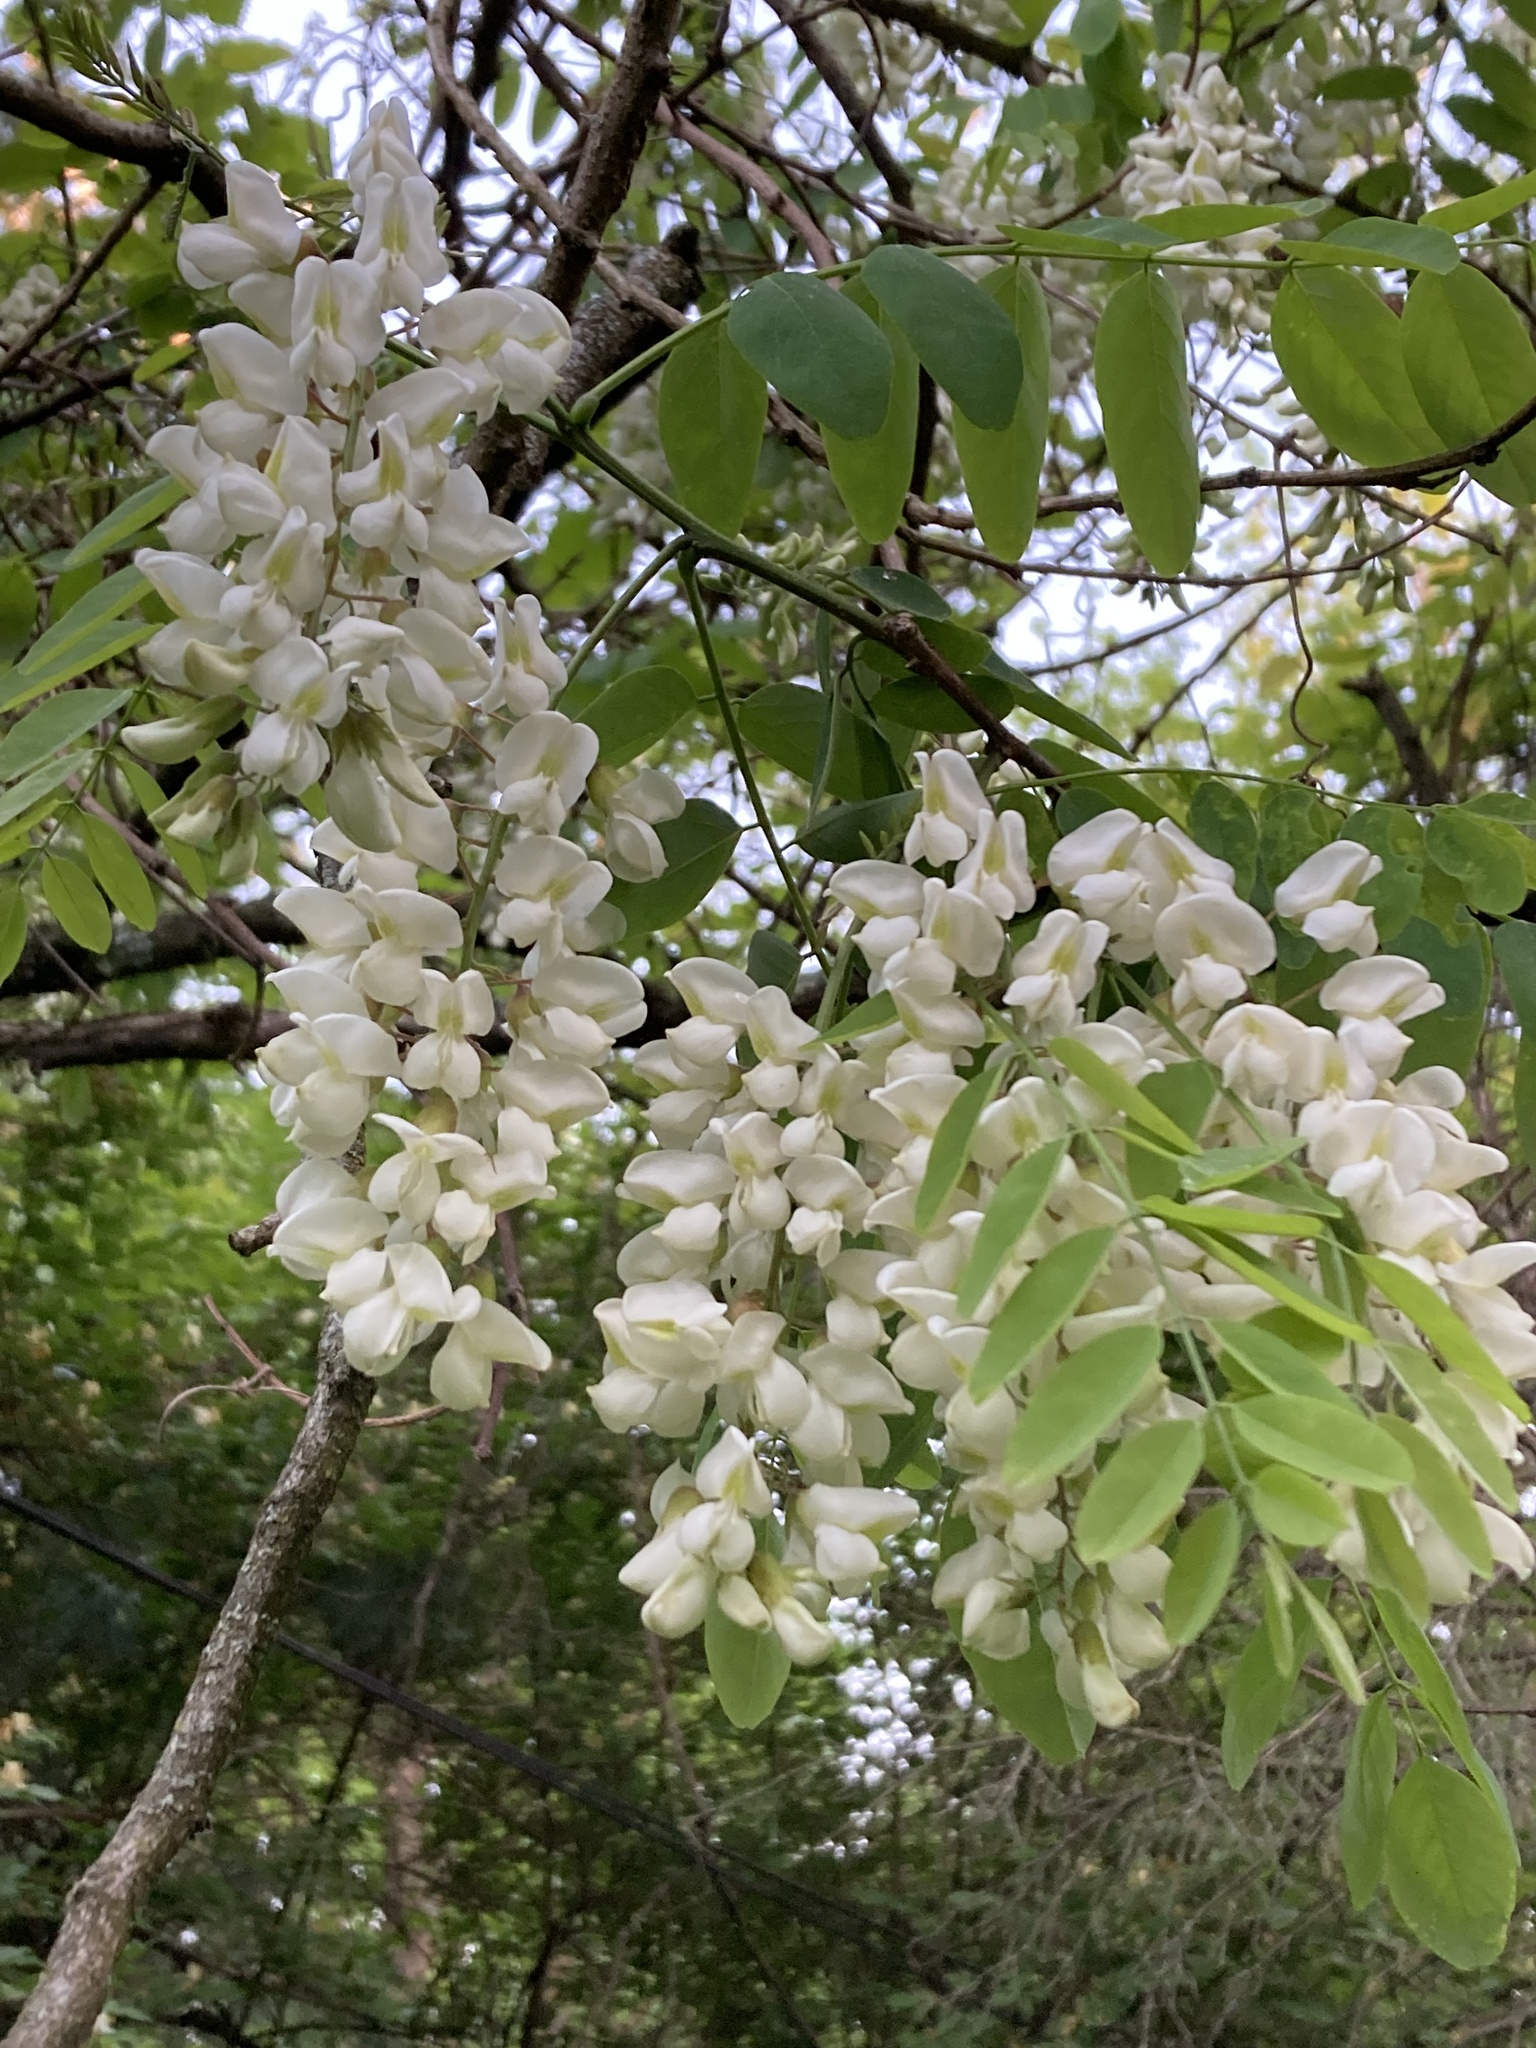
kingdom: Plantae
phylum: Tracheophyta
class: Magnoliopsida
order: Fabales
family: Fabaceae
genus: Robinia
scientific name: Robinia pseudoacacia
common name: Black locust
